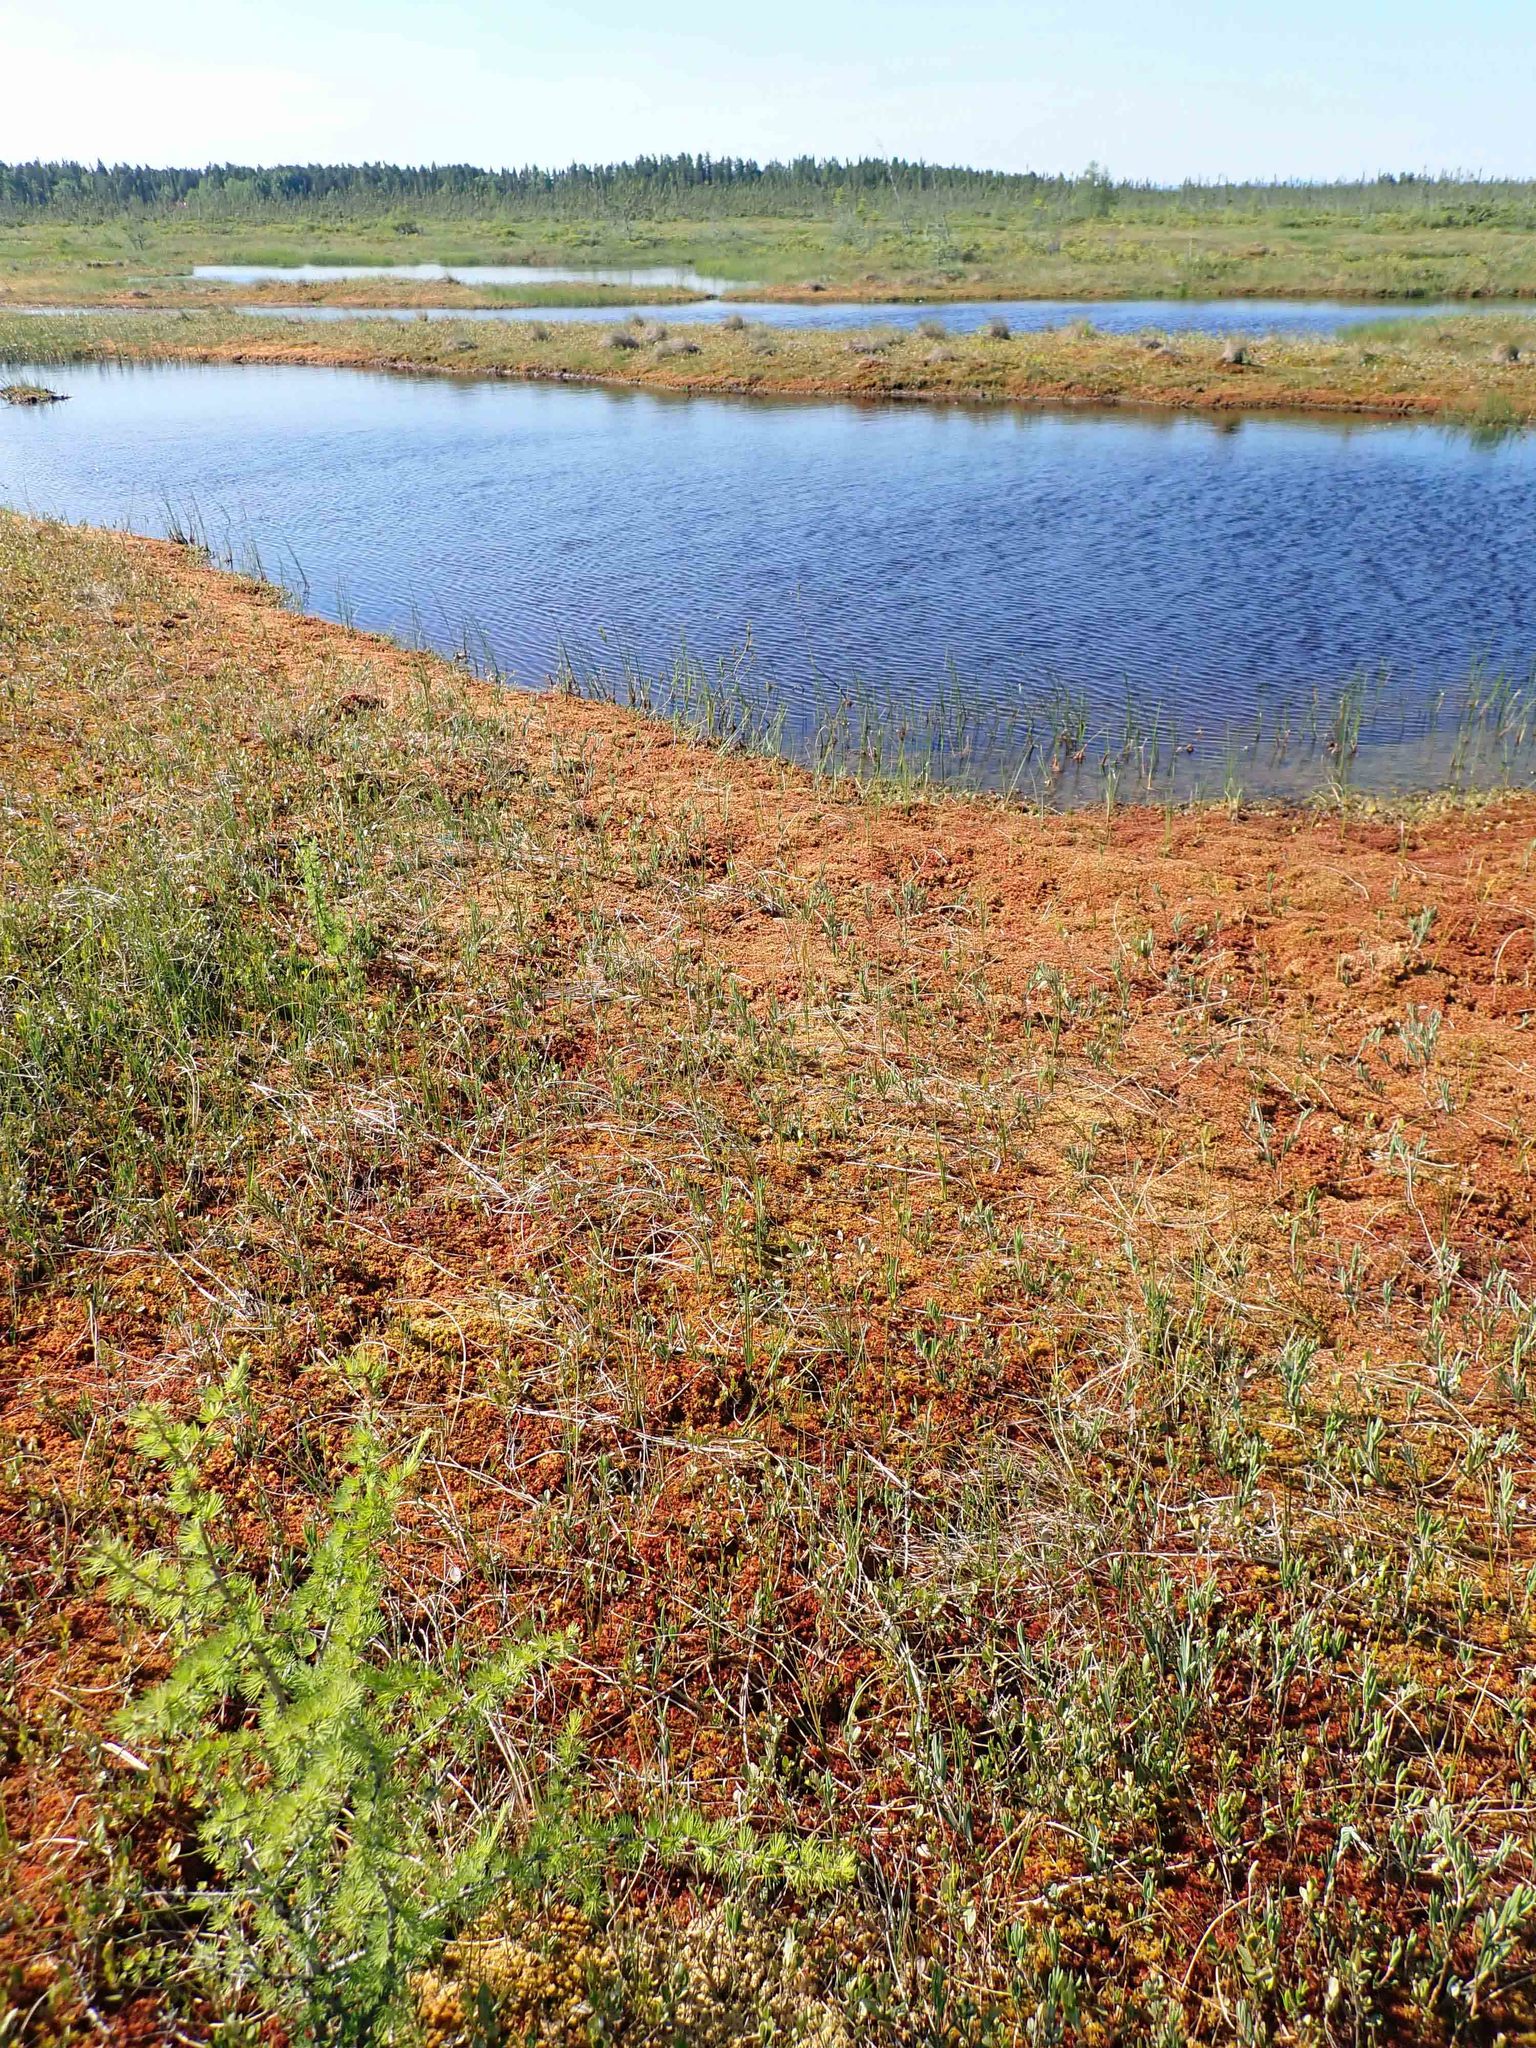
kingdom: Plantae
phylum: Tracheophyta
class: Pinopsida
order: Pinales
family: Pinaceae
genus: Larix
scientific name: Larix laricina
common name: American larch
